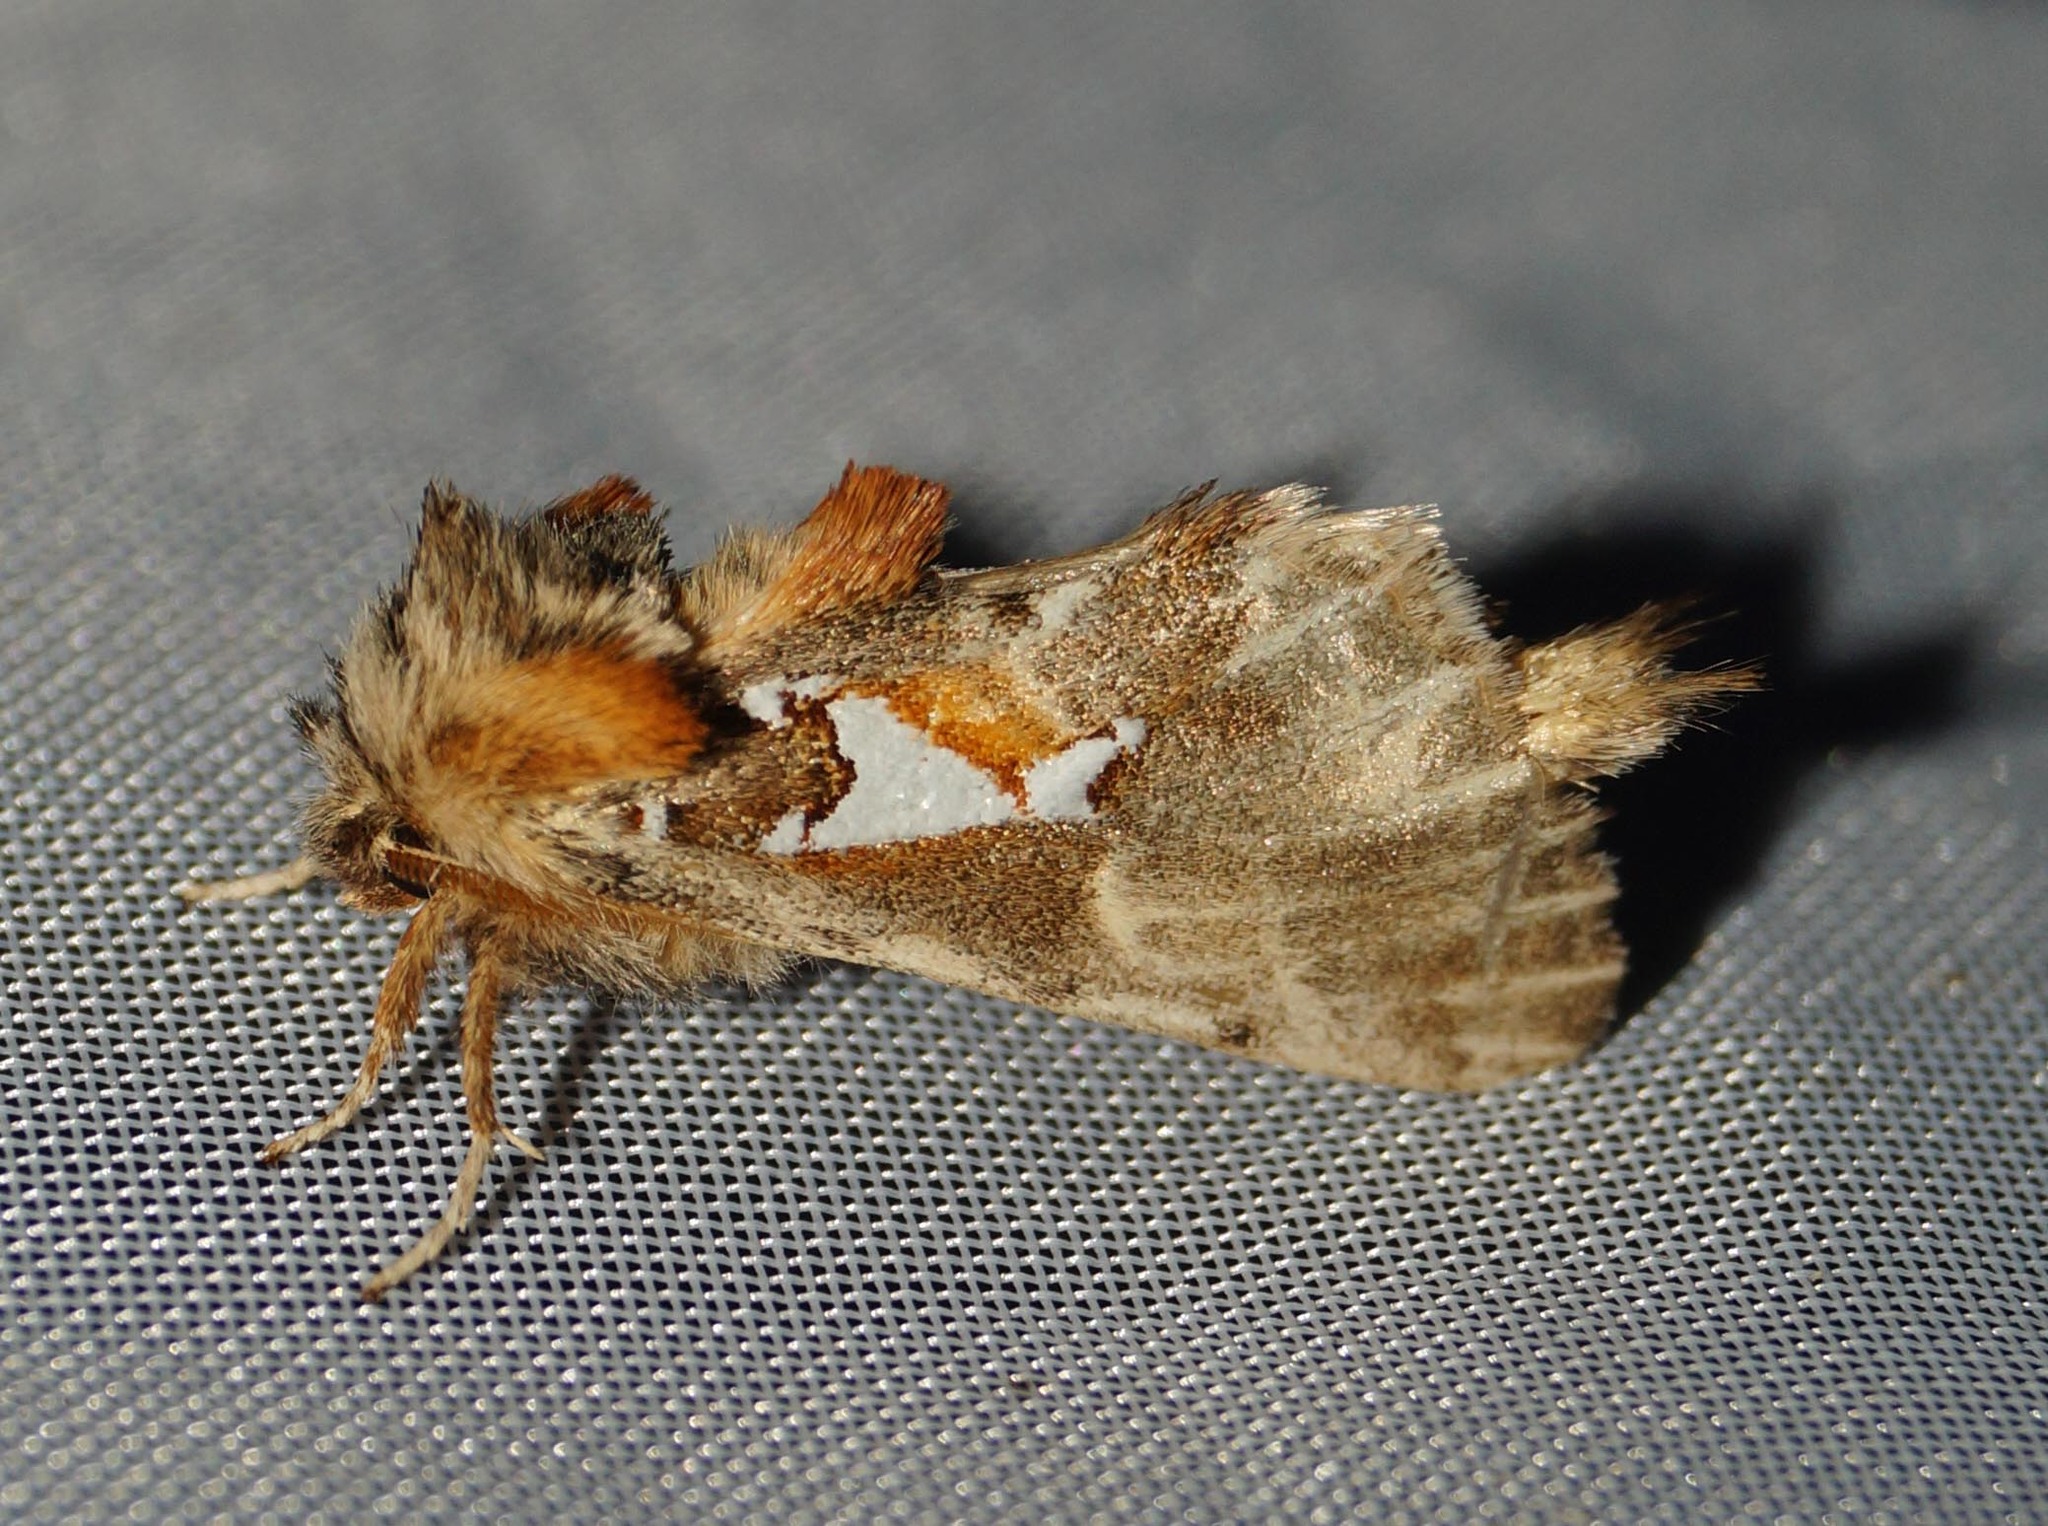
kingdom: Animalia
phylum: Arthropoda
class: Insecta
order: Lepidoptera
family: Notodontidae
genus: Spatalia
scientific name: Spatalia argentina
